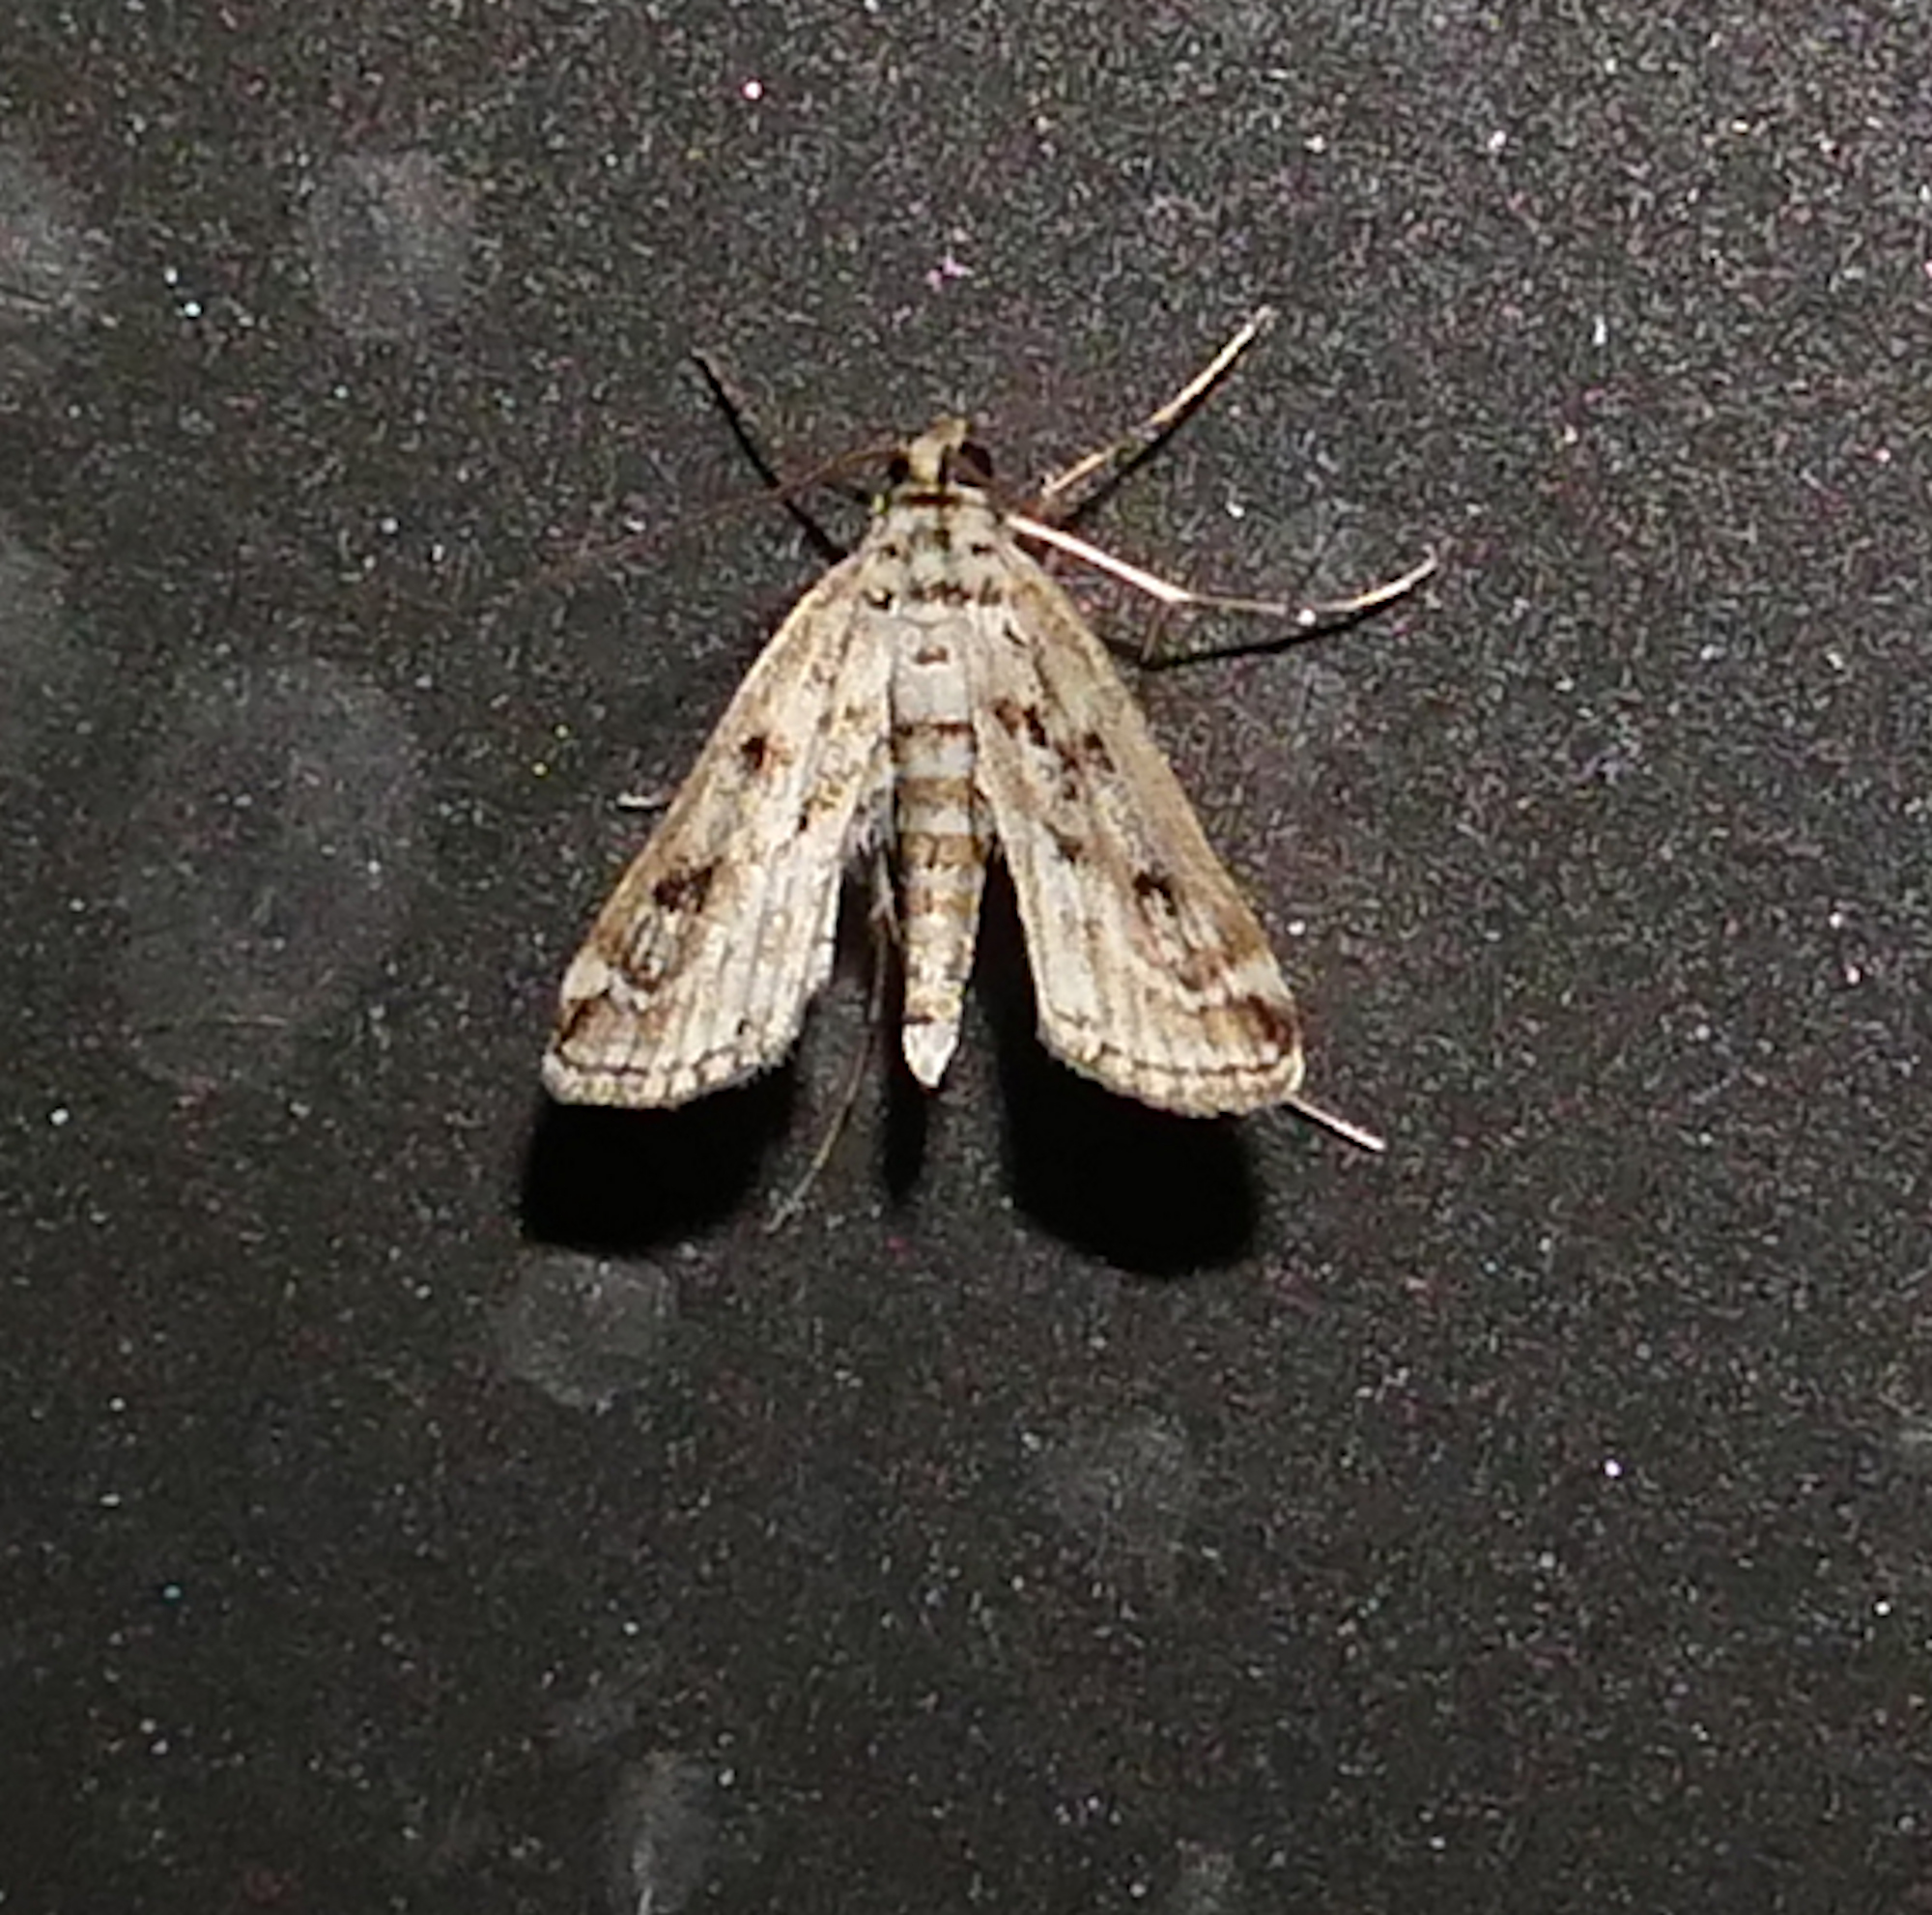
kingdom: Animalia
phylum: Arthropoda
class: Insecta
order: Lepidoptera
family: Crambidae
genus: Parapoynx
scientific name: Parapoynx allionealis
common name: Bladderwort casemaker
